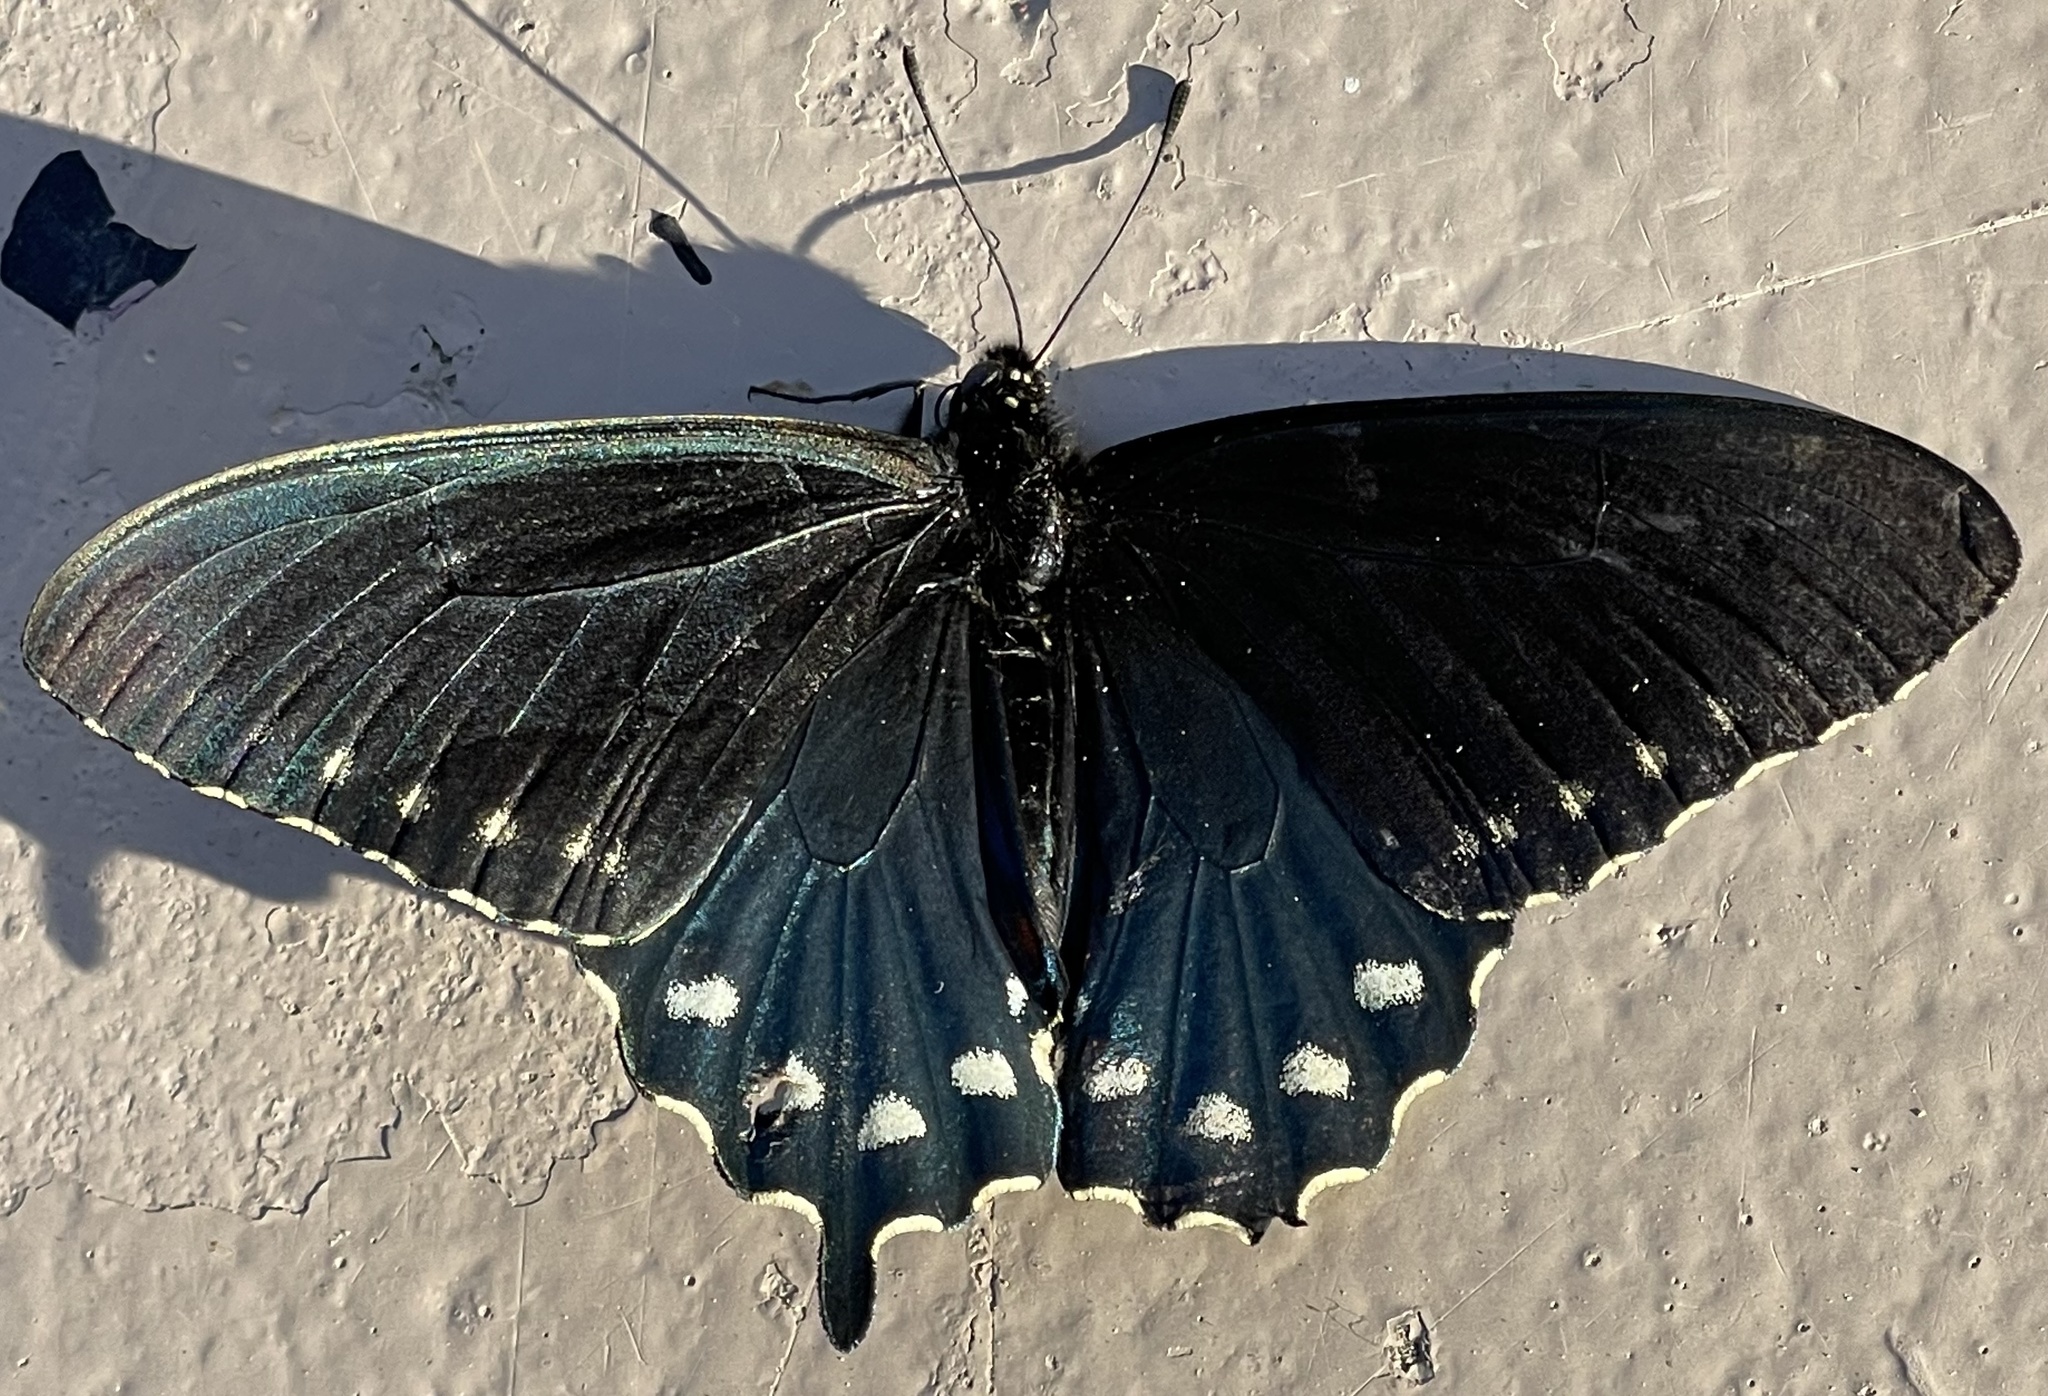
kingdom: Animalia
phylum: Arthropoda
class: Insecta
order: Lepidoptera
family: Papilionidae
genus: Battus
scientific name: Battus philenor
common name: Pipevine swallowtail
